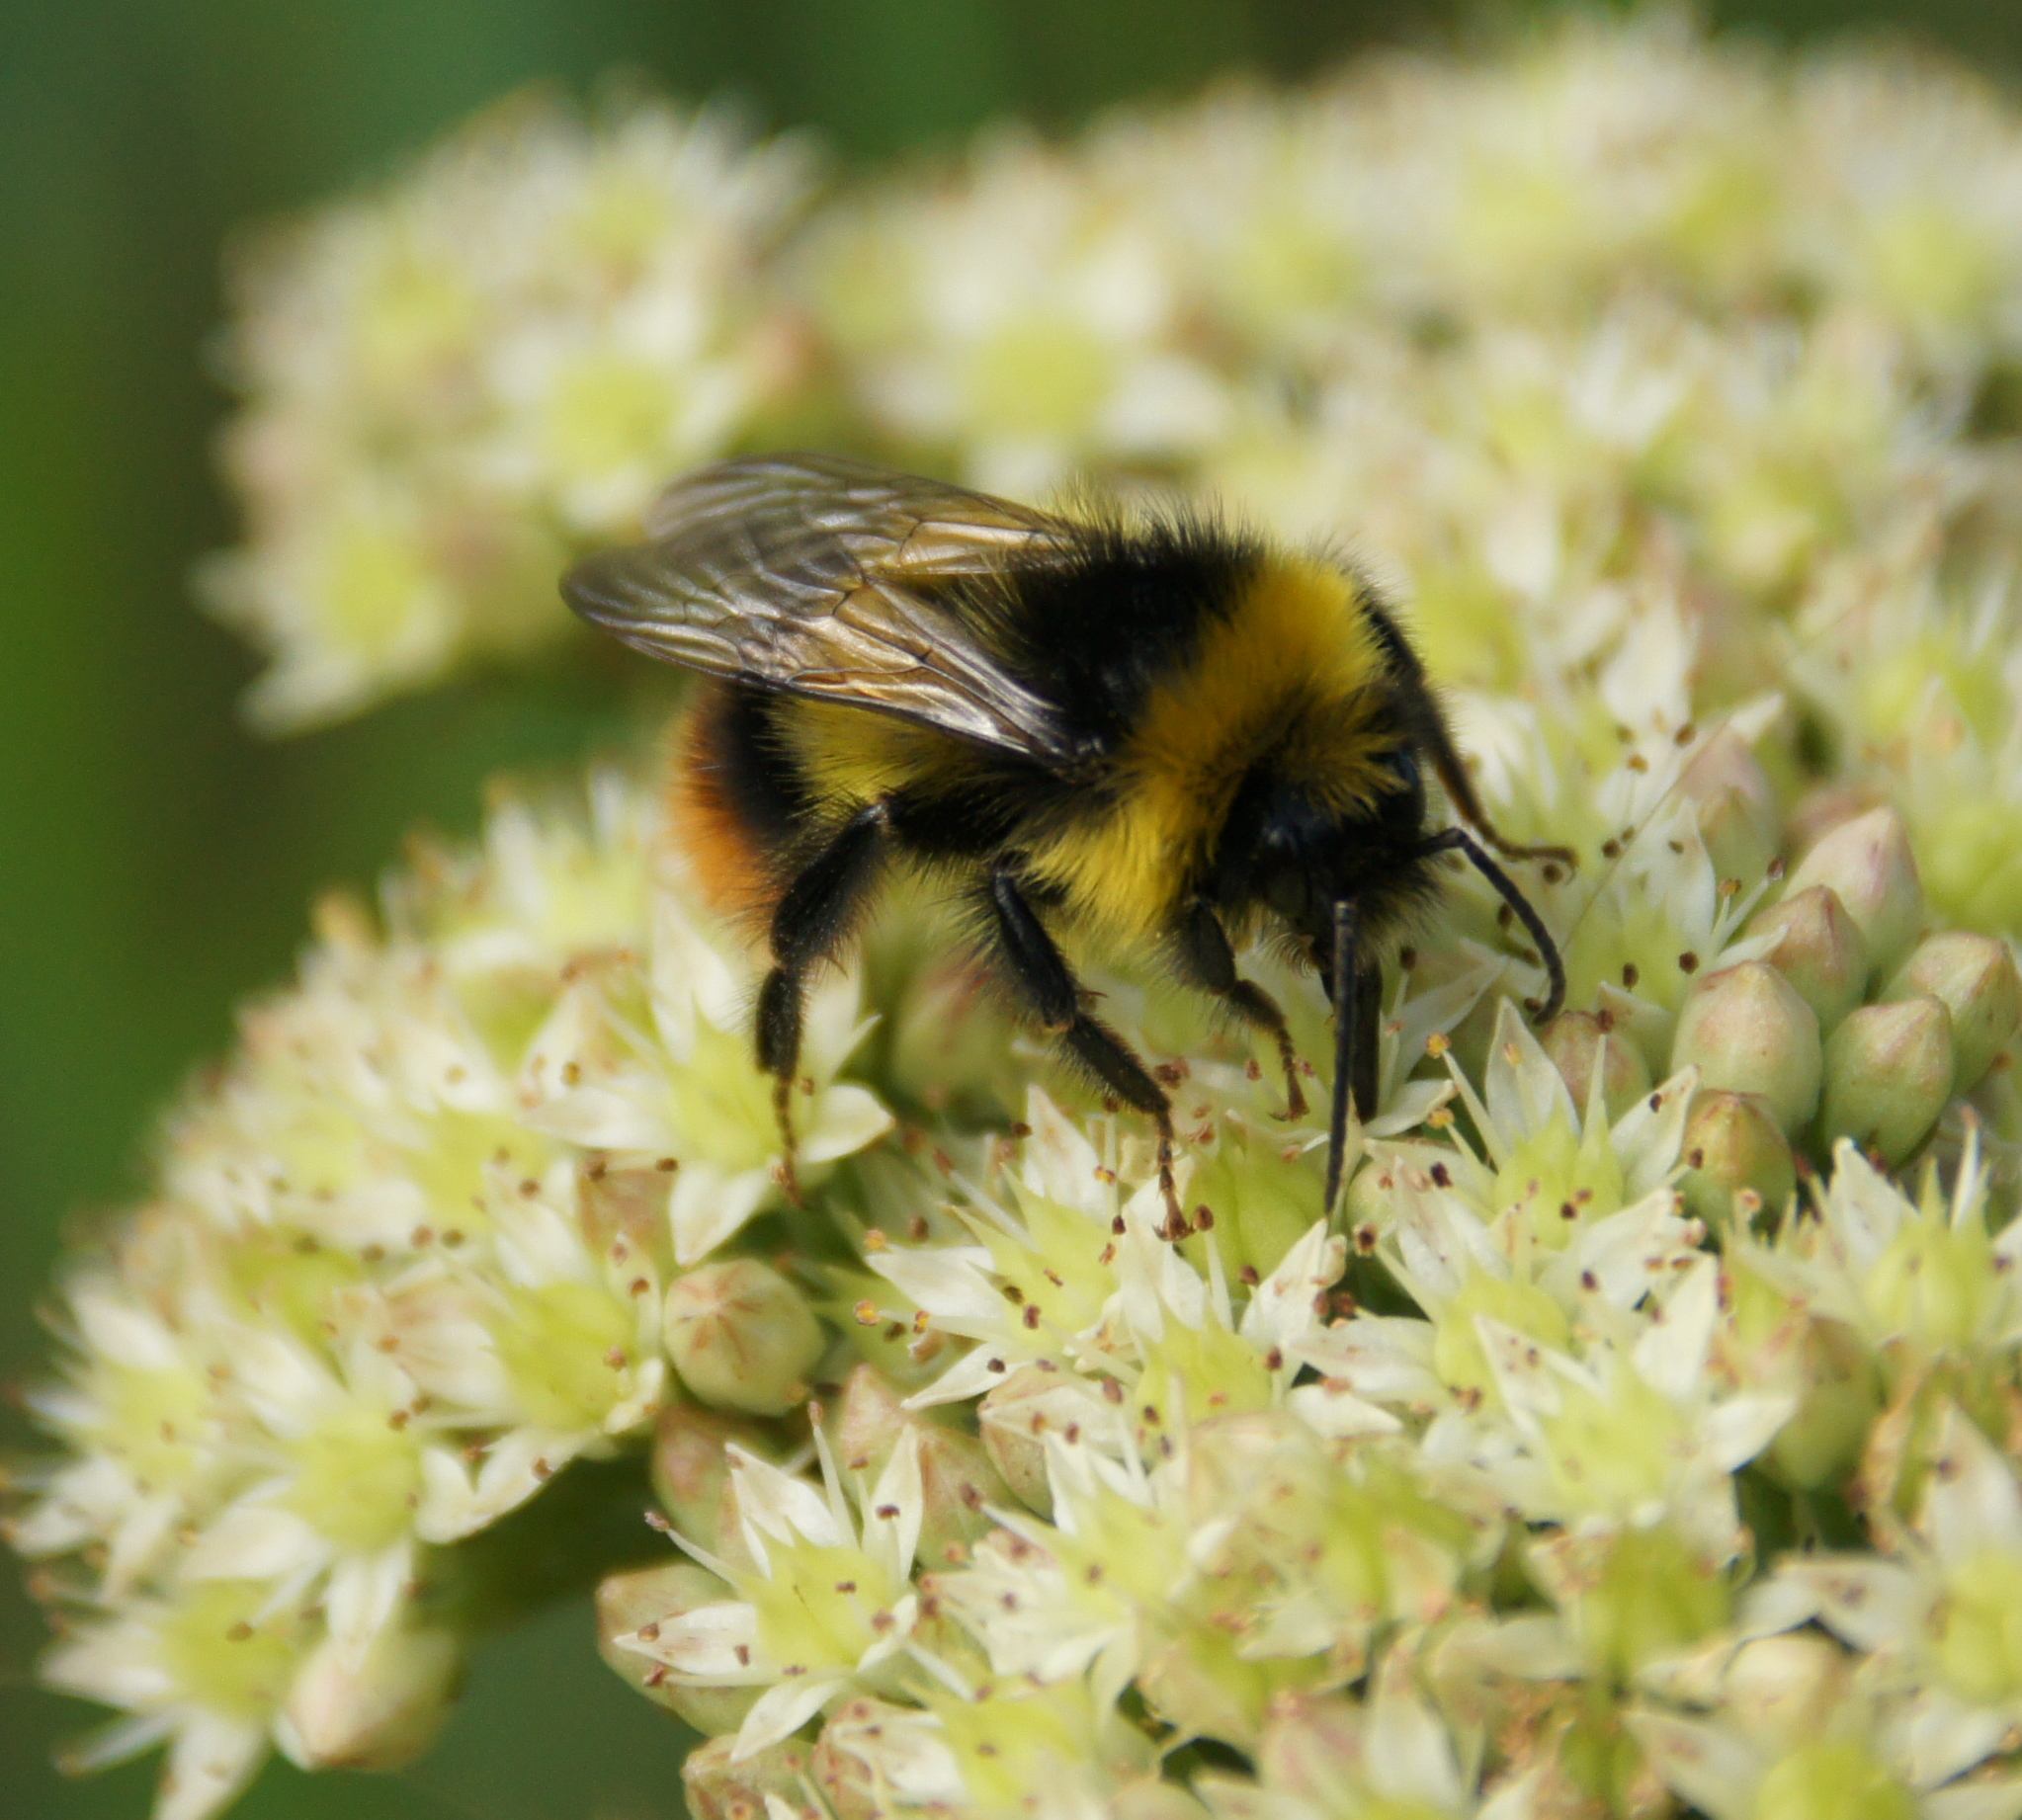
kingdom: Animalia
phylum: Arthropoda
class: Insecta
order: Hymenoptera
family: Apidae
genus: Bombus
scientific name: Bombus pratorum
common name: Early humble-bee
